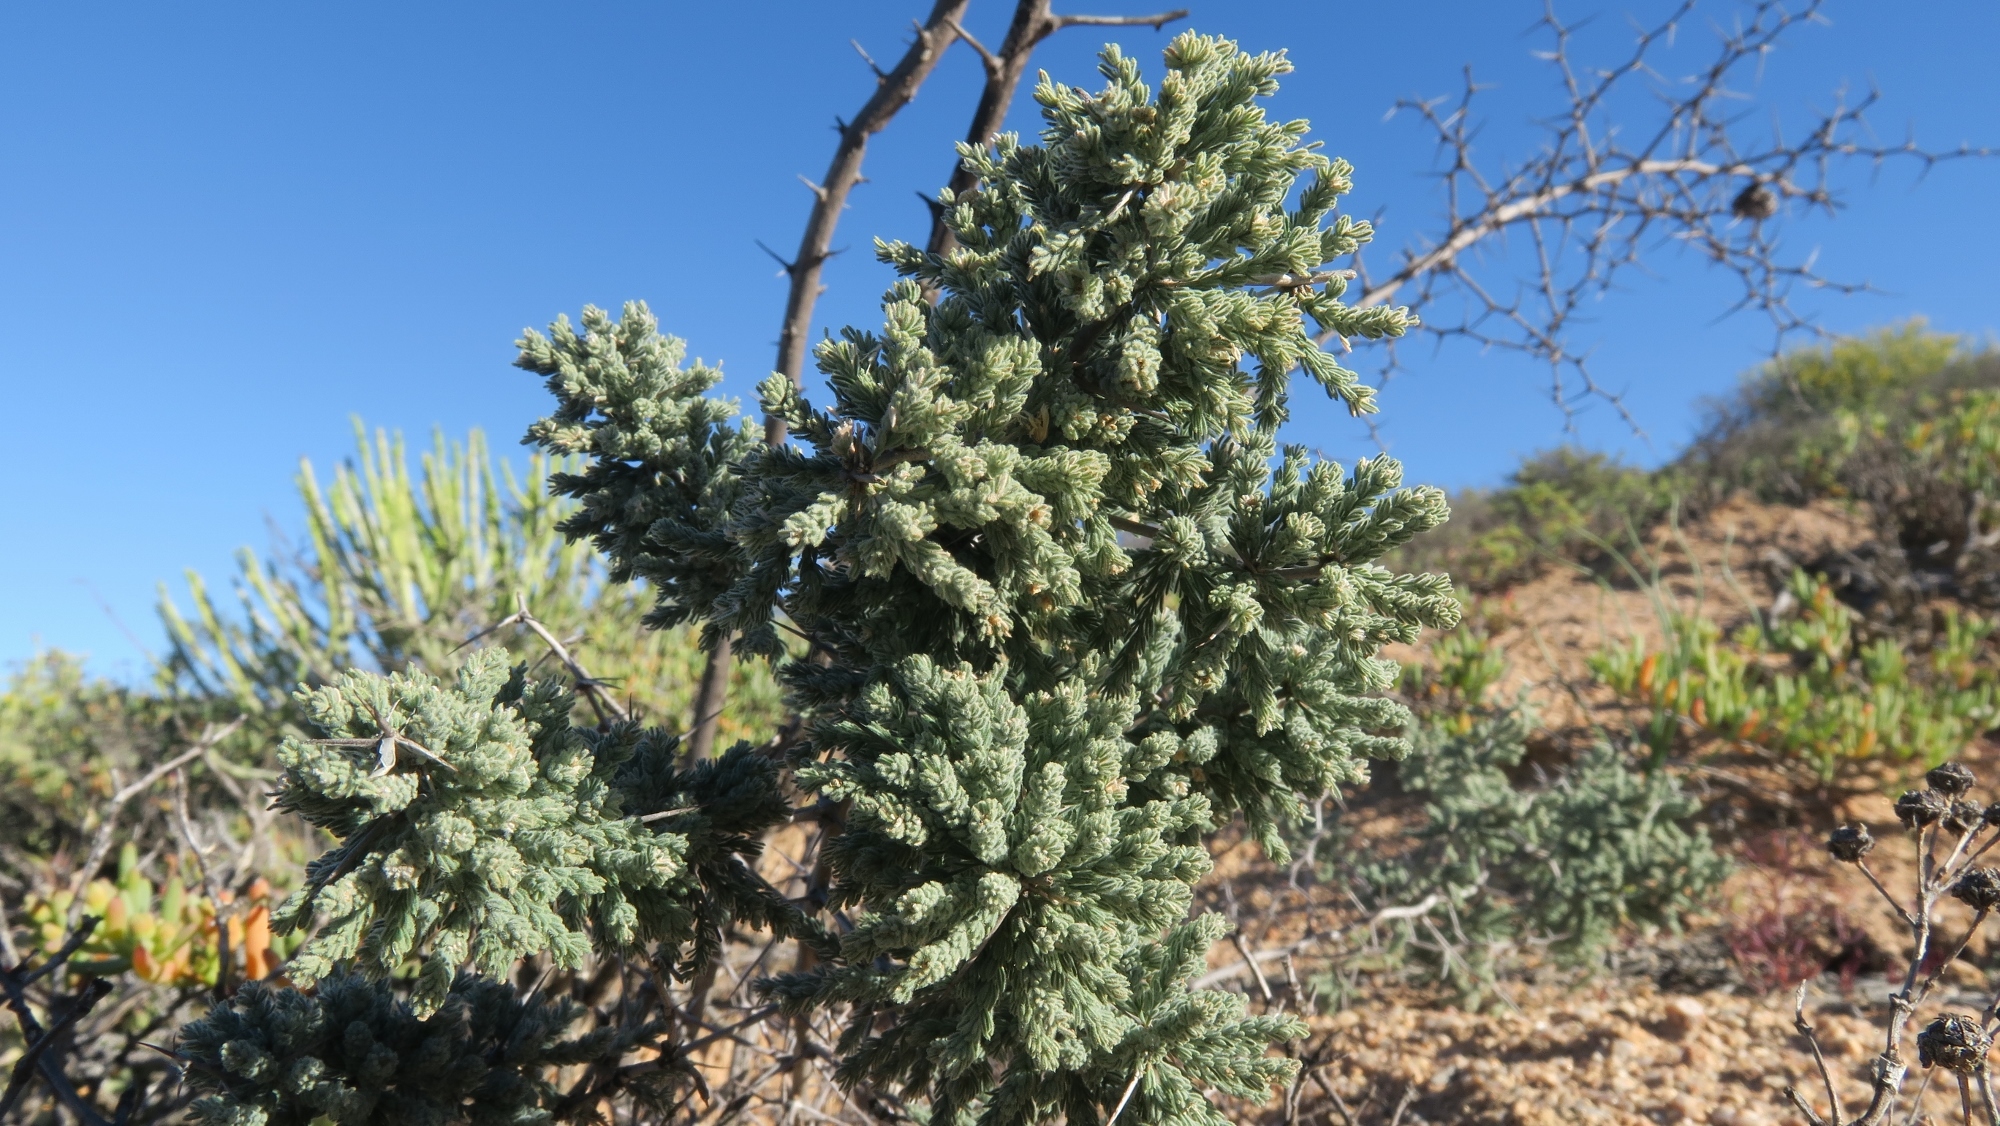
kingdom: Plantae
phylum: Tracheophyta
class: Liliopsida
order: Asparagales
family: Asparagaceae
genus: Asparagus
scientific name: Asparagus capensis
